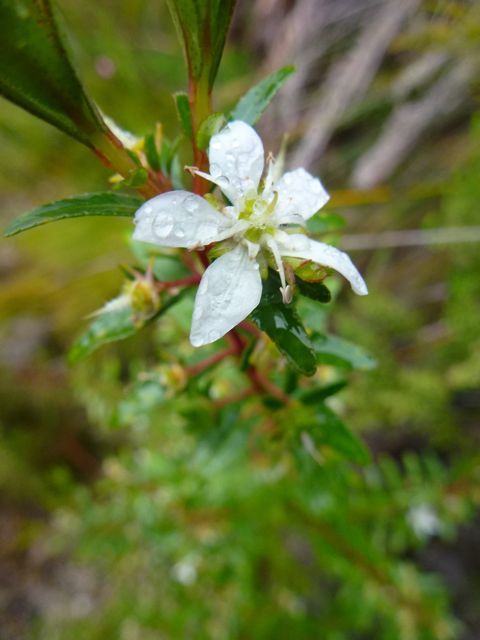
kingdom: Plantae
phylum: Tracheophyta
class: Magnoliopsida
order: Sapindales
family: Rutaceae
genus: Agathosma
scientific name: Agathosma crenulata
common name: Oval buchu
